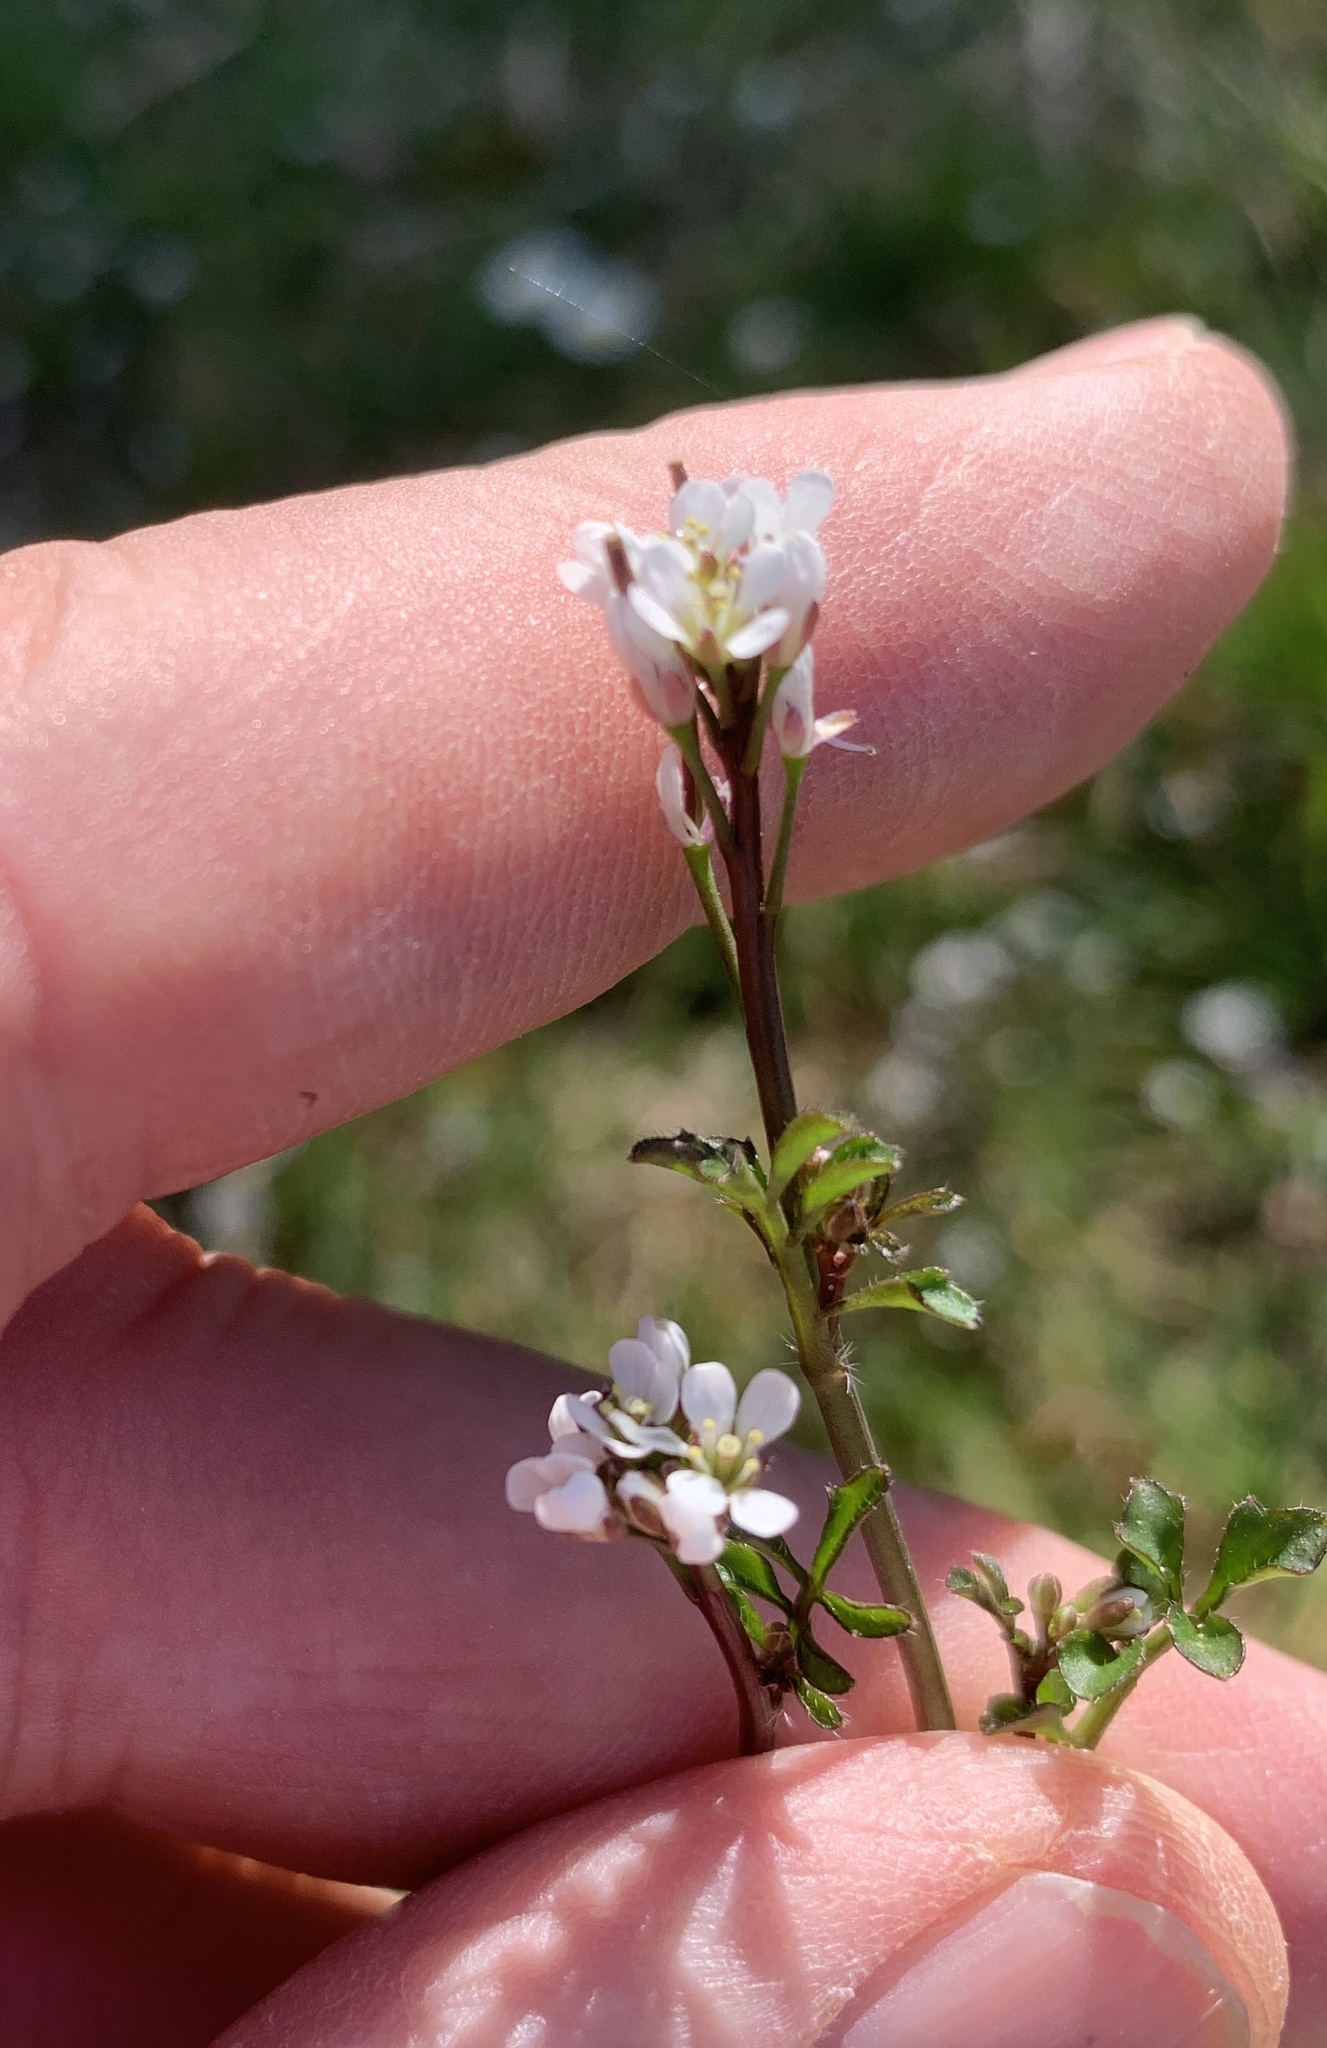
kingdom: Plantae
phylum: Tracheophyta
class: Magnoliopsida
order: Brassicales
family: Brassicaceae
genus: Cardamine
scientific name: Cardamine hirsuta
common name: Hairy bittercress
